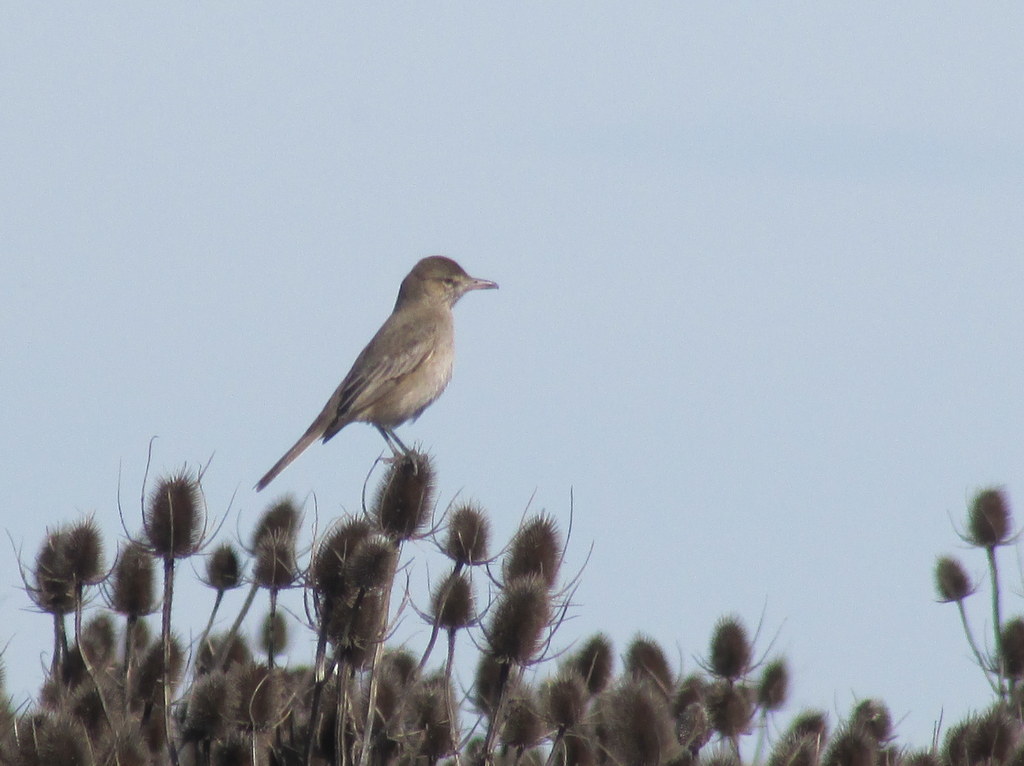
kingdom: Animalia
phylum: Chordata
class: Aves
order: Passeriformes
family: Tyrannidae
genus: Agriornis
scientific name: Agriornis micropterus
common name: Grey-bellied shrike-tyrant
